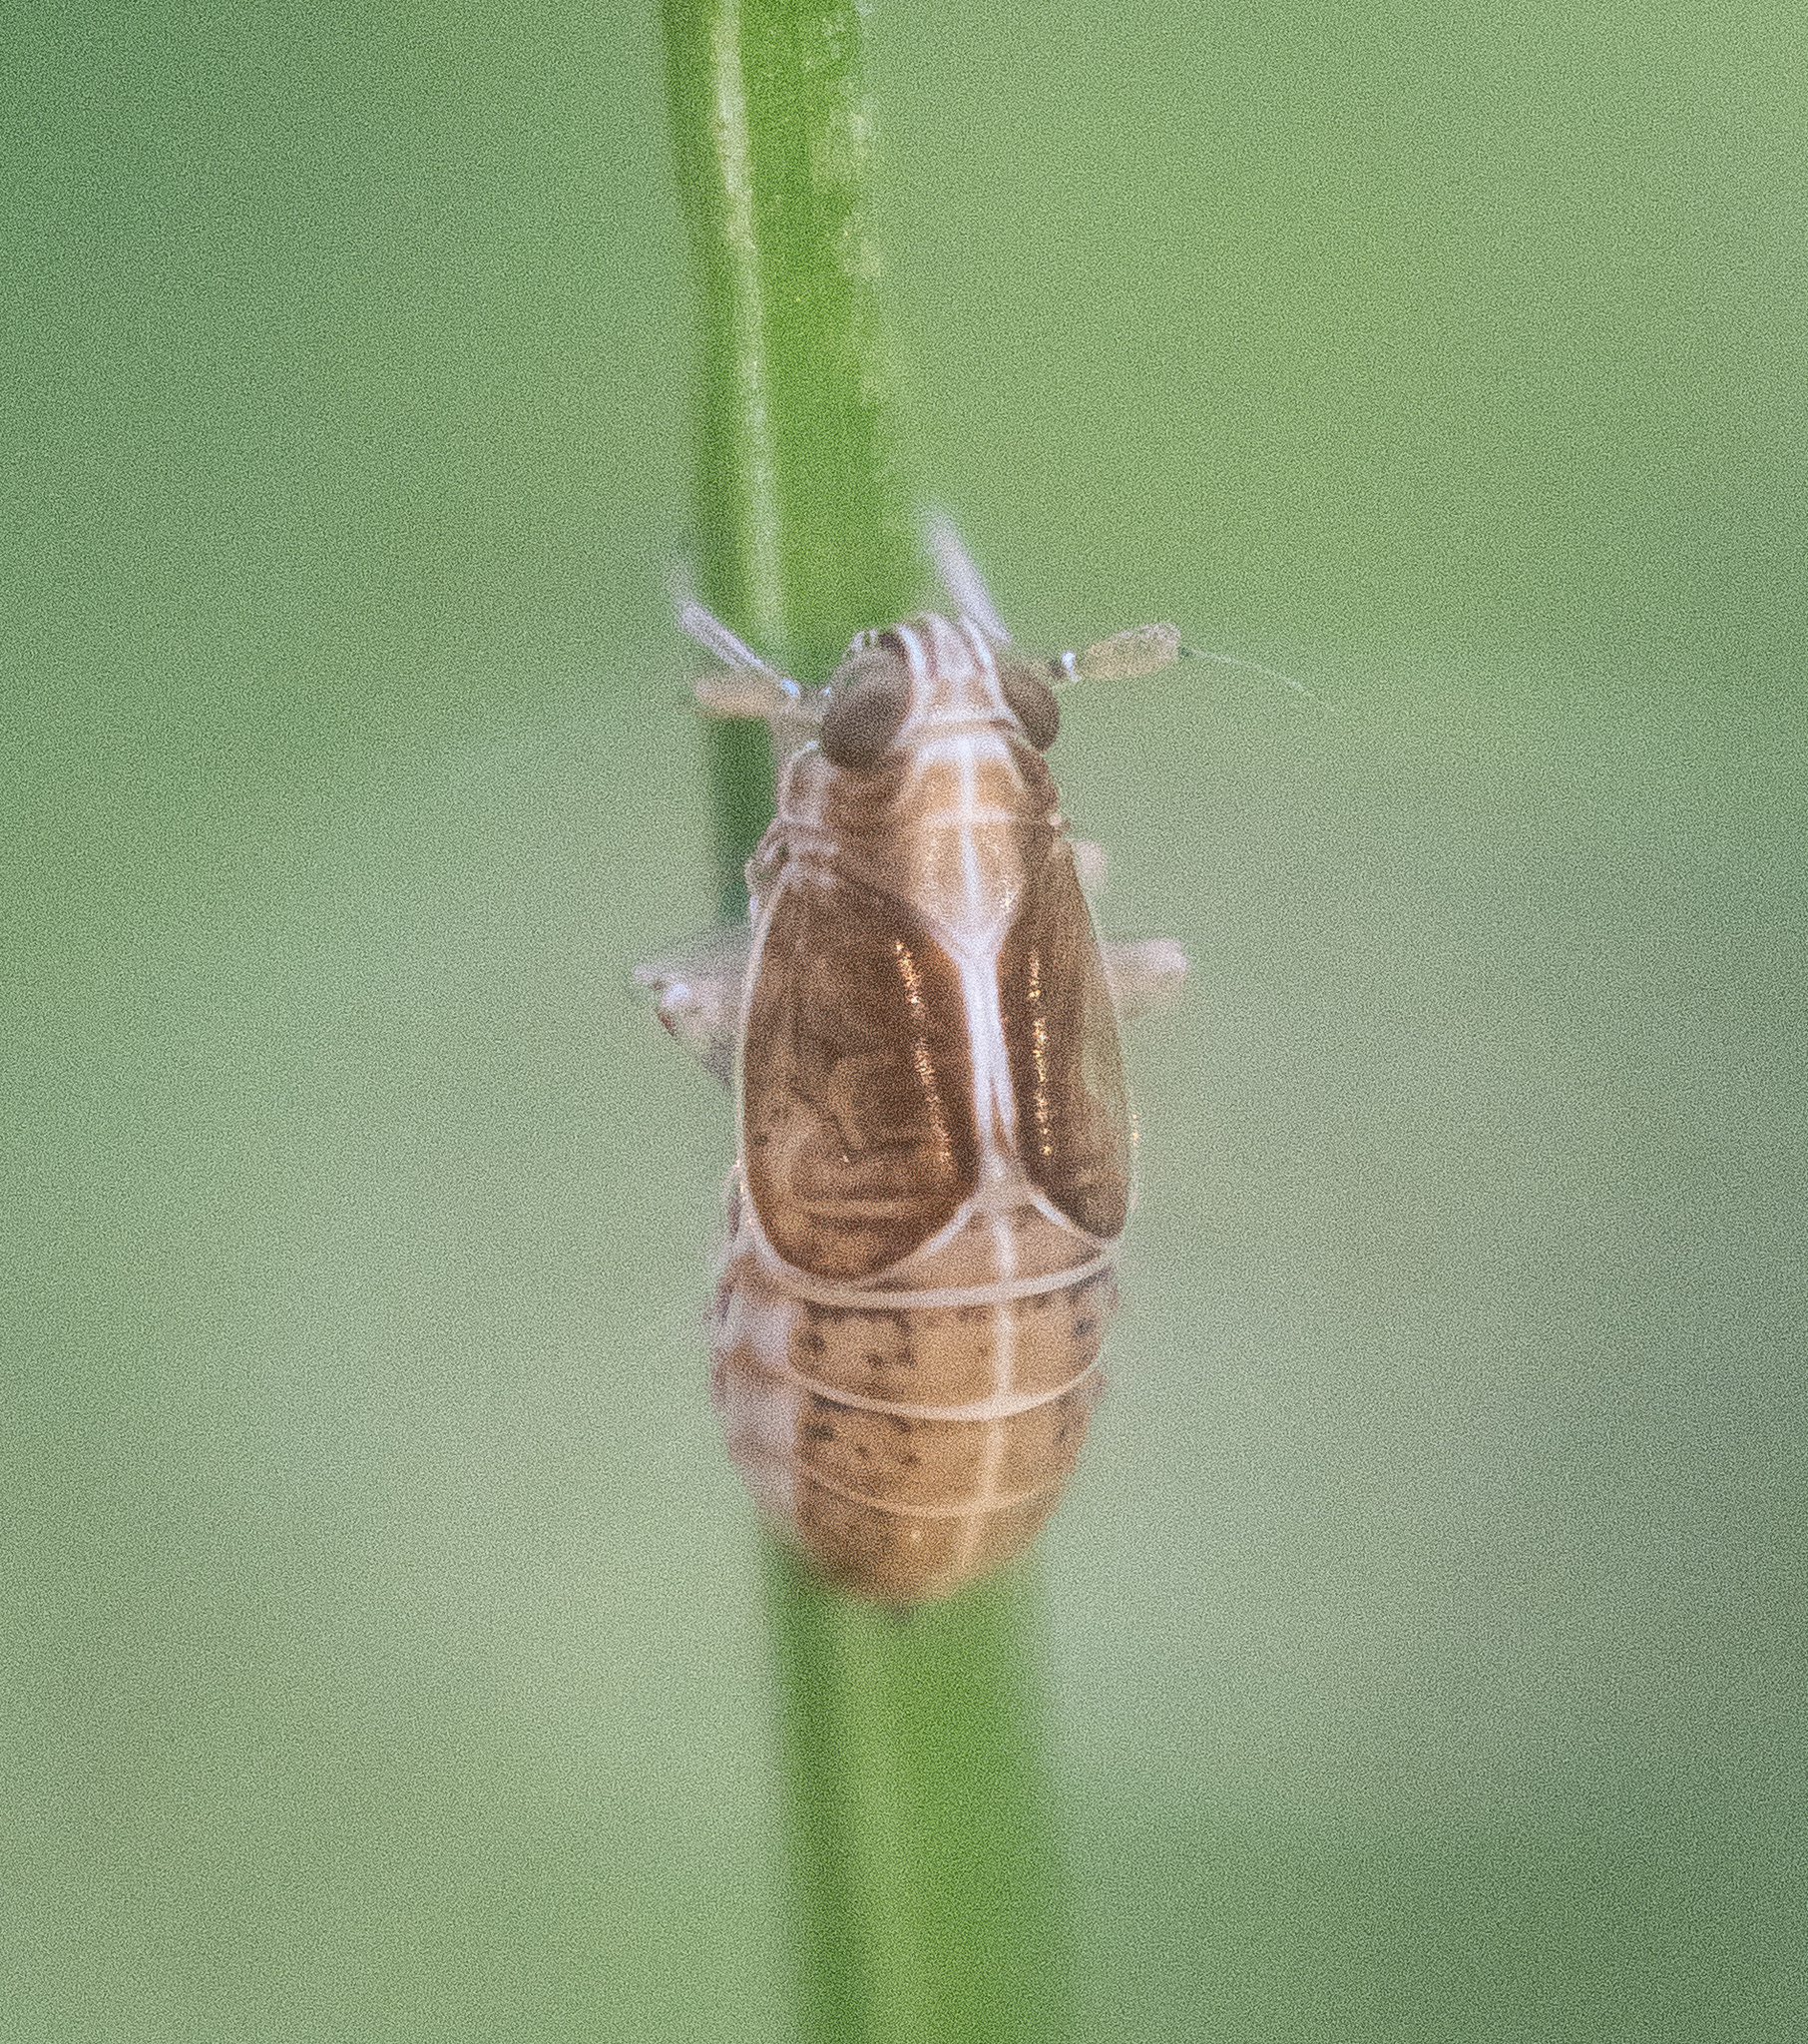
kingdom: Animalia
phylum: Arthropoda
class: Insecta
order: Hemiptera
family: Delphacidae
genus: Muellerianella
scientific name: Muellerianella laminalis
